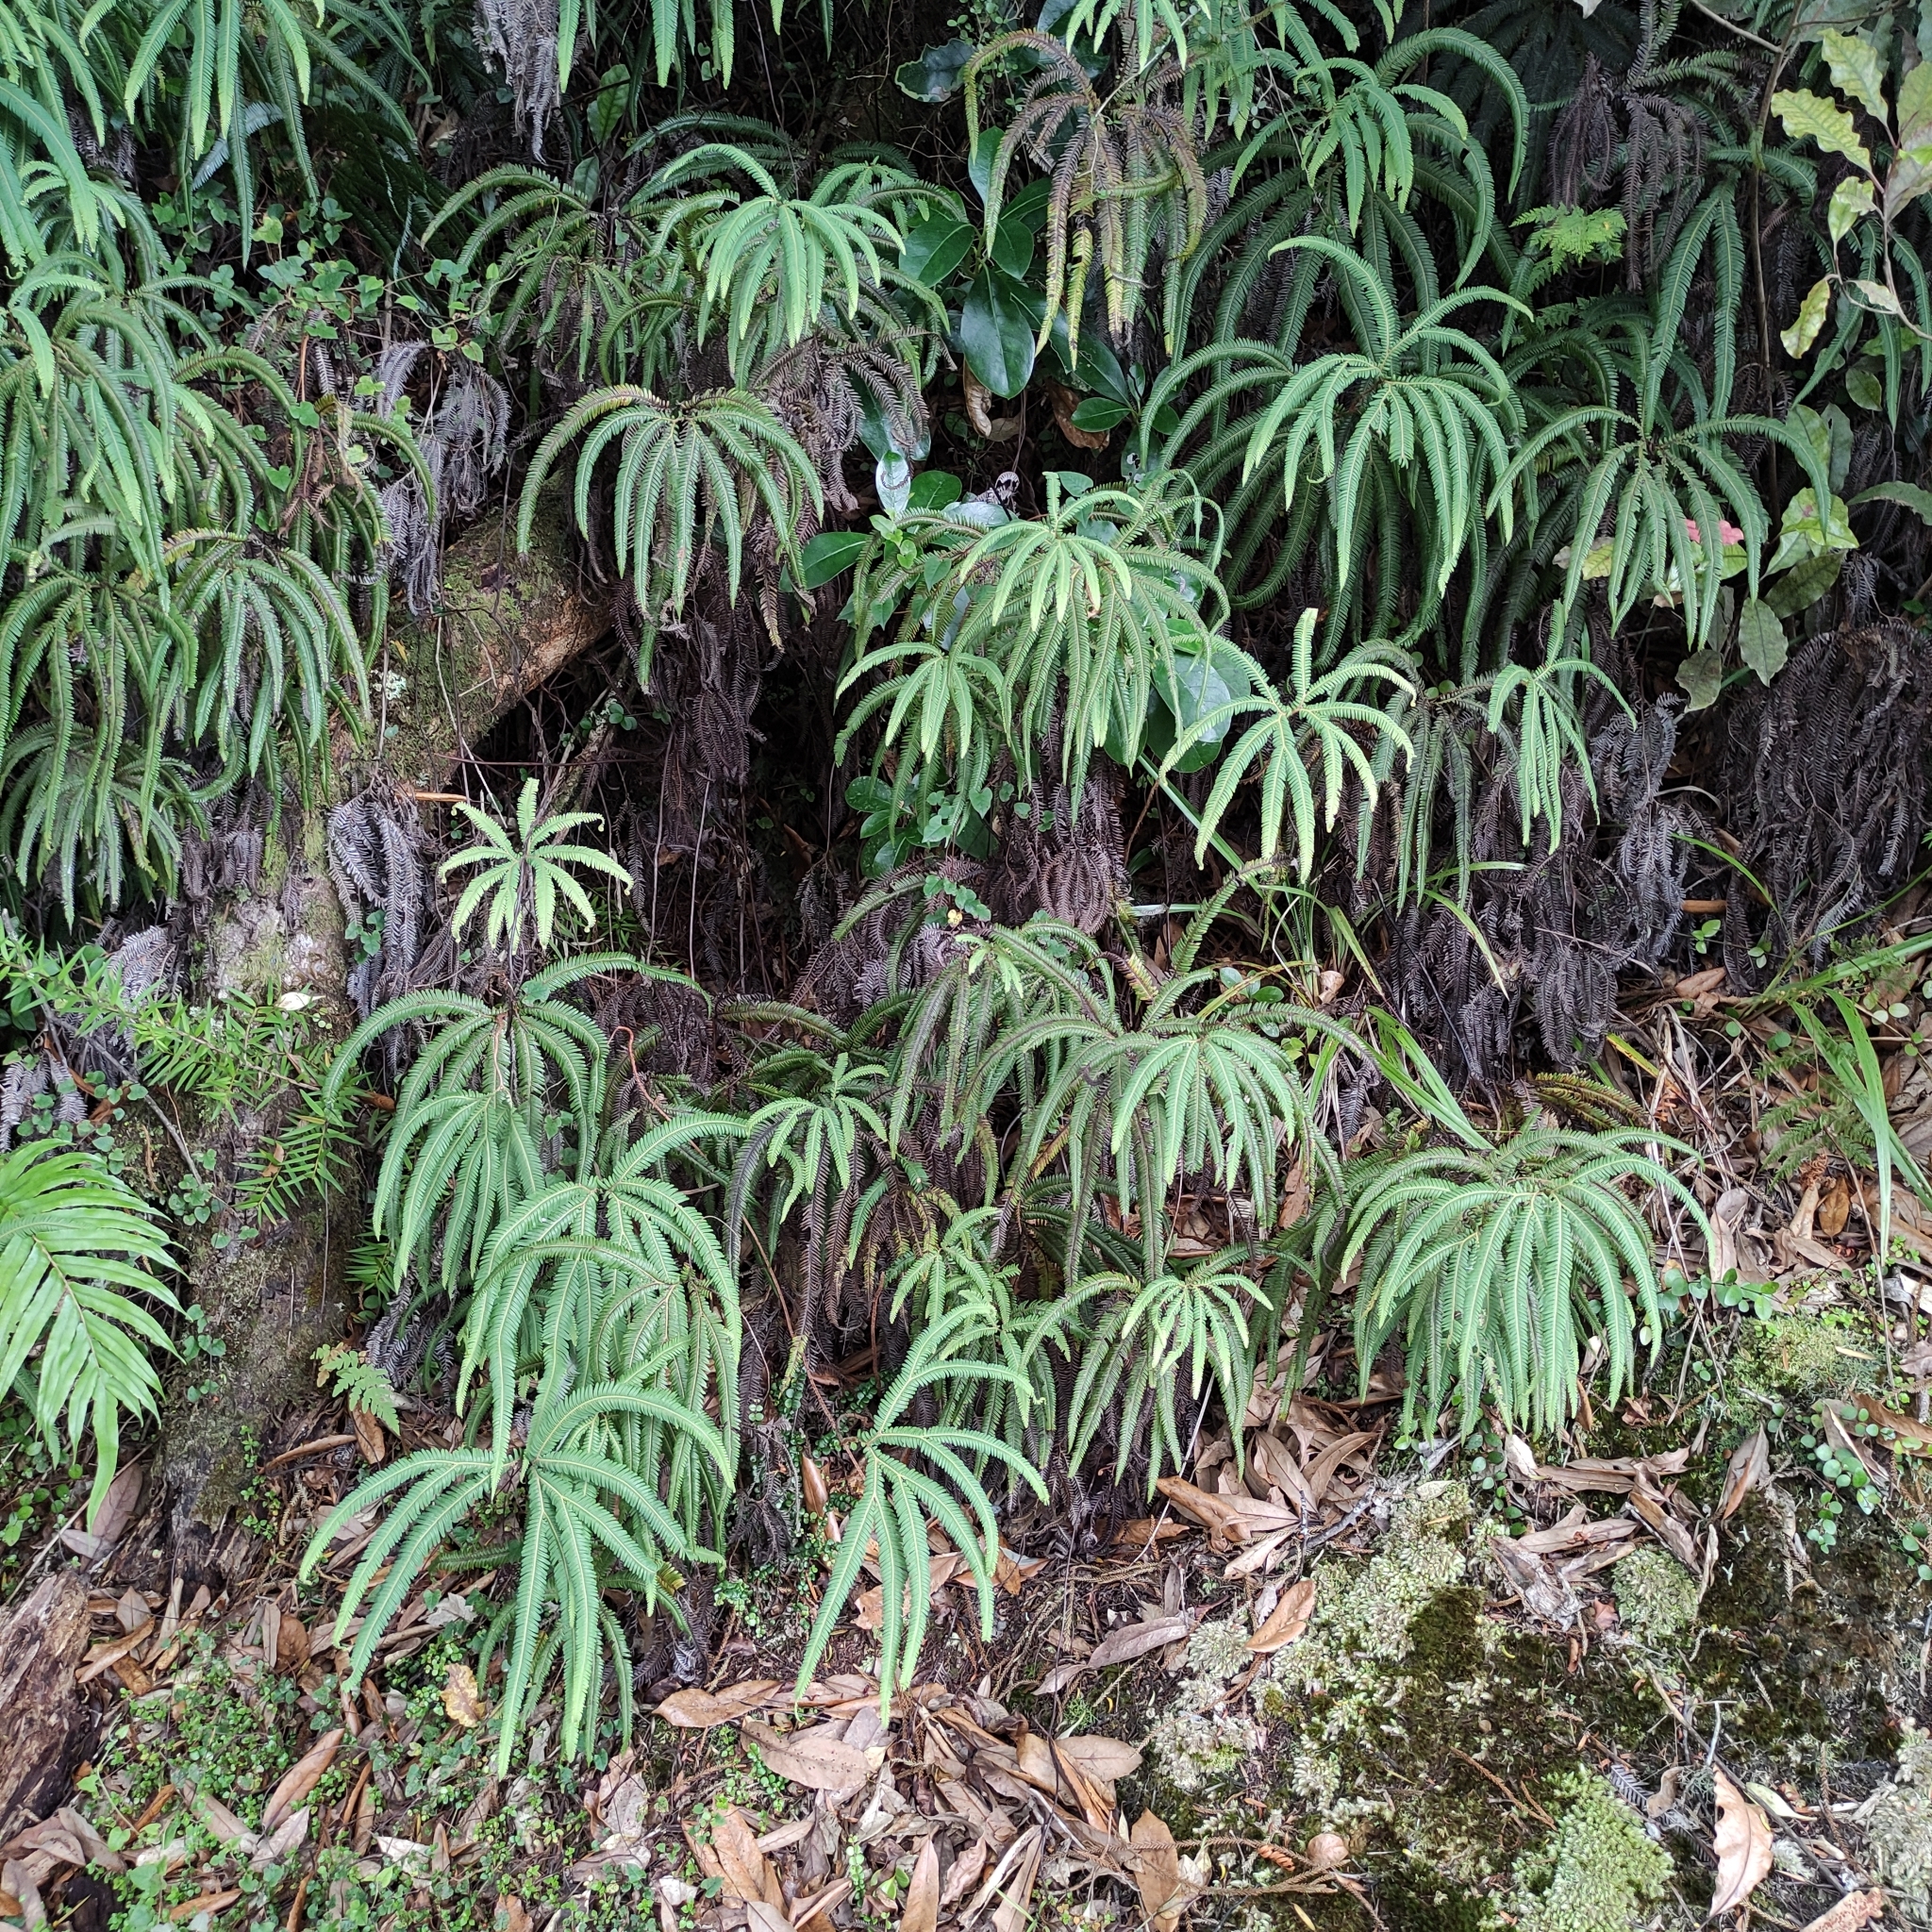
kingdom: Plantae
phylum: Tracheophyta
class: Polypodiopsida
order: Gleicheniales
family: Gleicheniaceae
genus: Sticherus
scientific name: Sticherus cunninghamii
